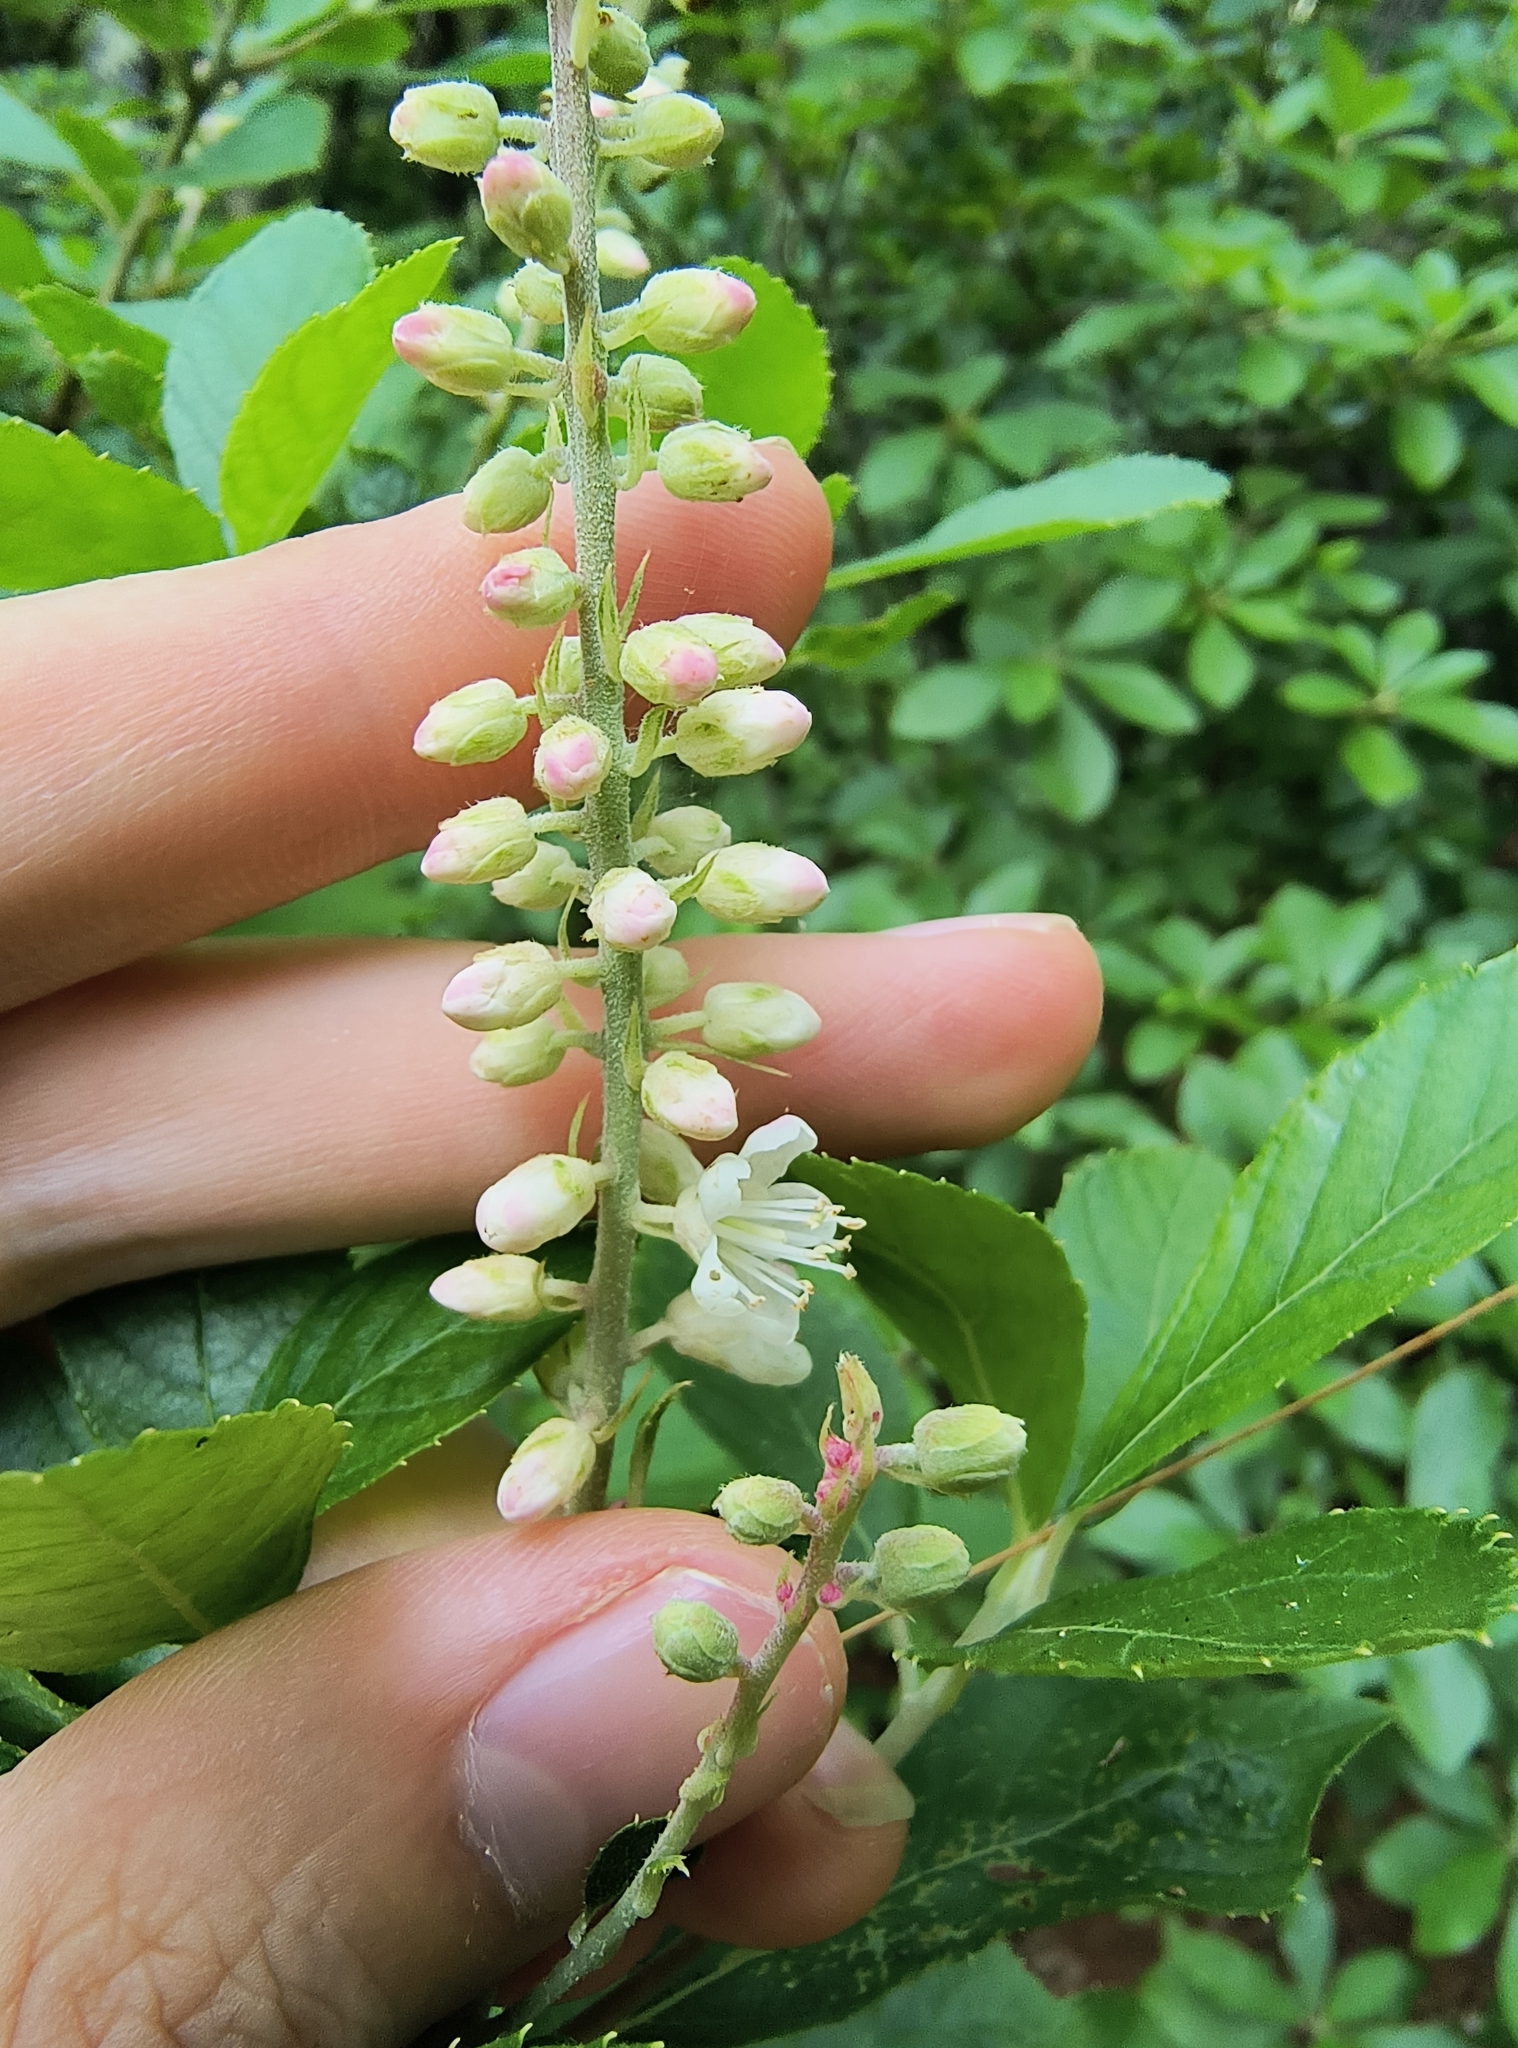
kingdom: Plantae
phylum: Tracheophyta
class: Magnoliopsida
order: Ericales
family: Clethraceae
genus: Clethra
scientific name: Clethra alnifolia
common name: Sweet pepperbush
